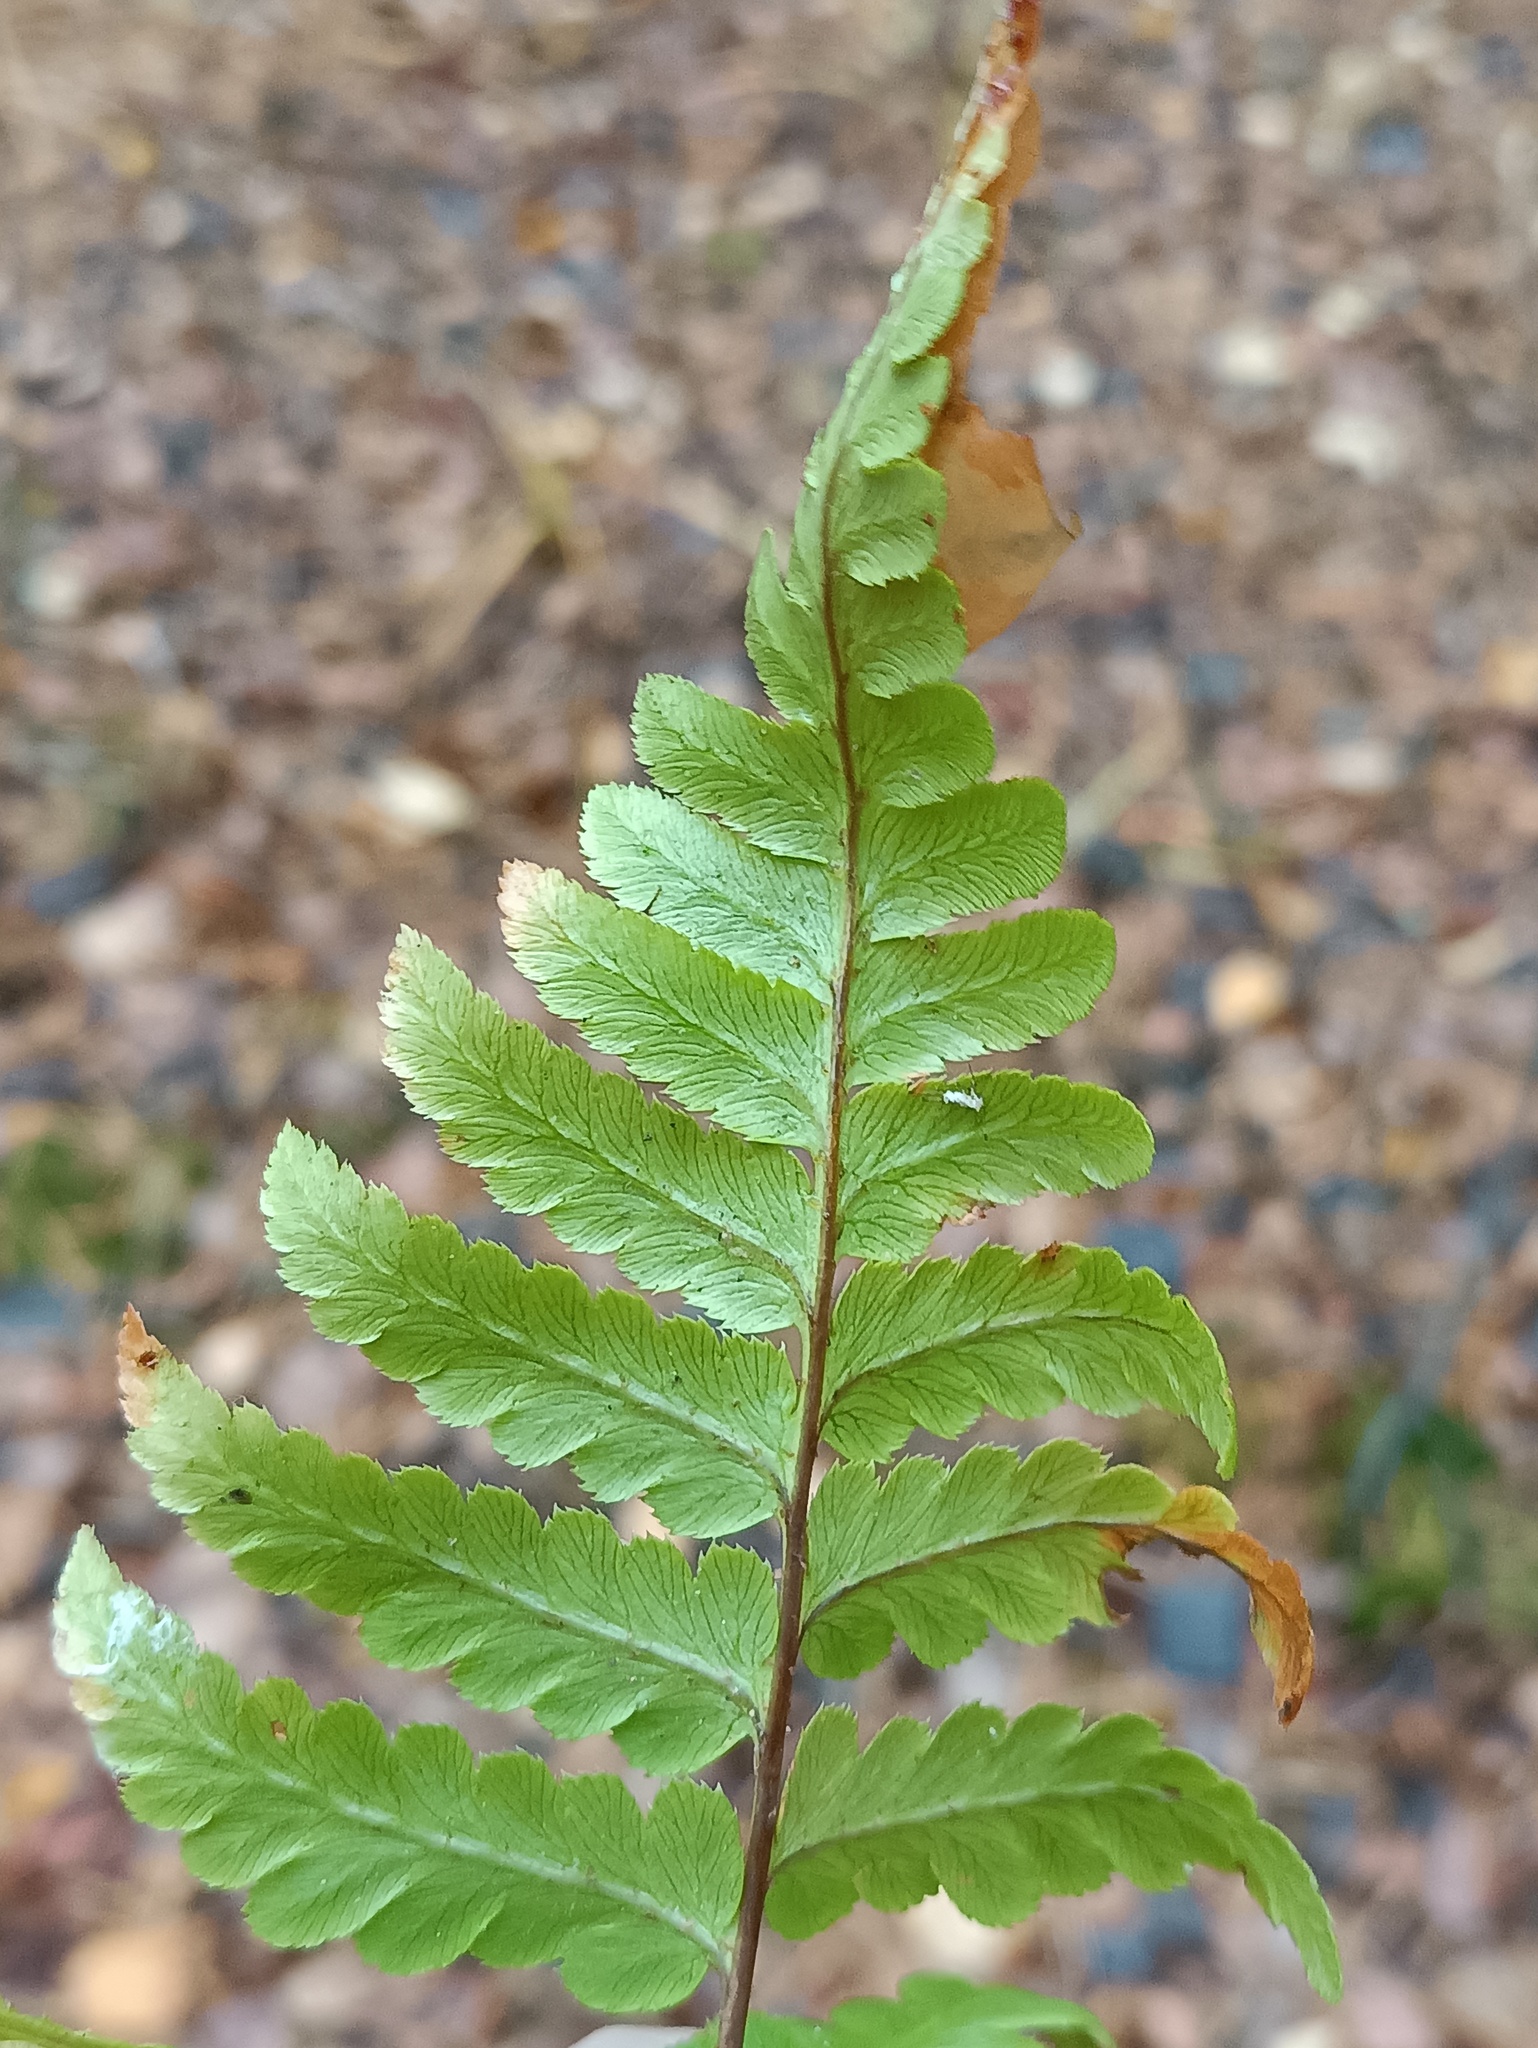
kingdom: Plantae
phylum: Tracheophyta
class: Polypodiopsida
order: Polypodiales
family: Dryopteridaceae
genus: Dryopteris
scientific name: Dryopteris cristata
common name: Crested wood fern
